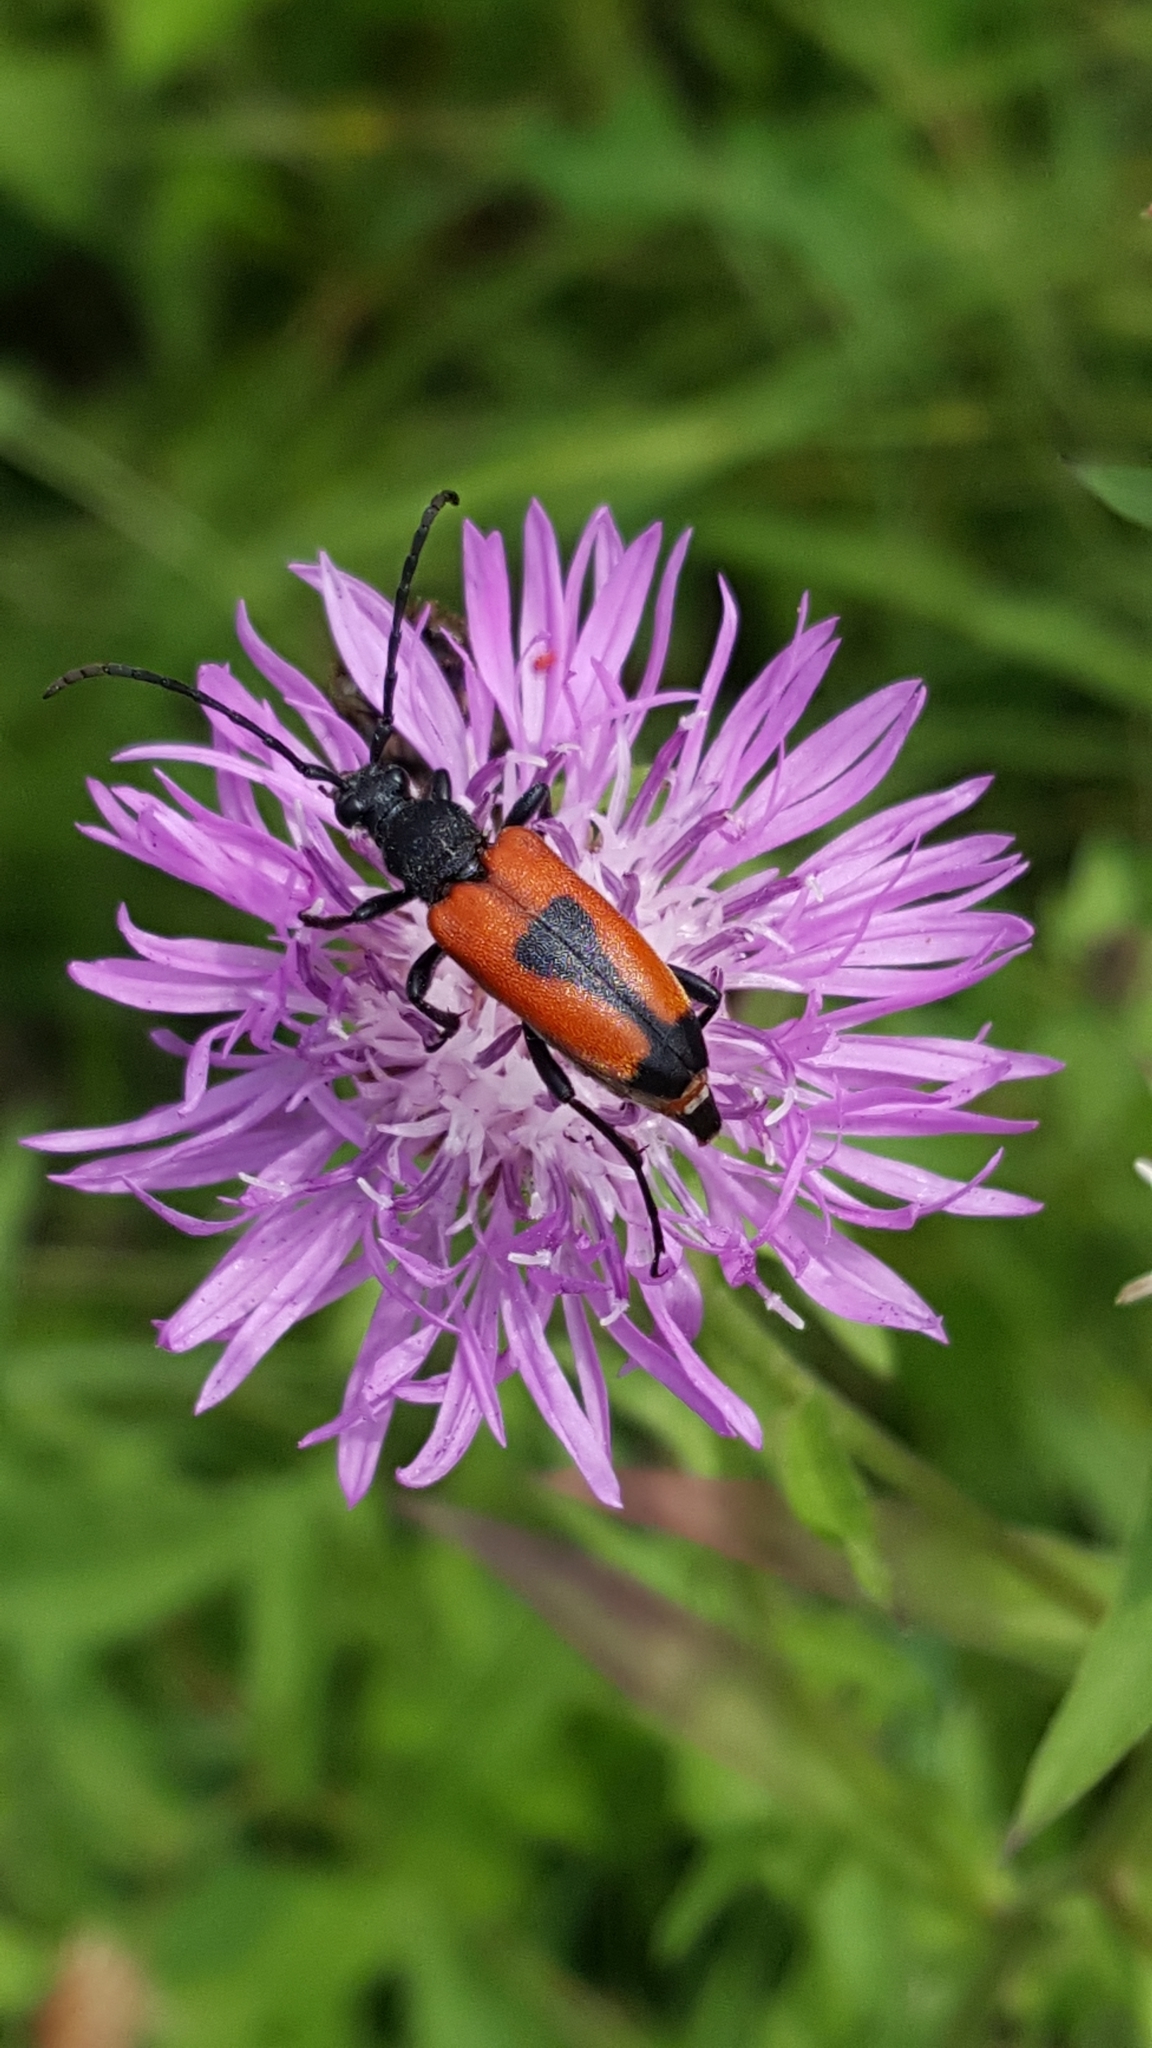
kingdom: Animalia
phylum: Arthropoda
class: Insecta
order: Coleoptera
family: Cerambycidae
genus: Stictoleptura
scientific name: Stictoleptura cordigera
